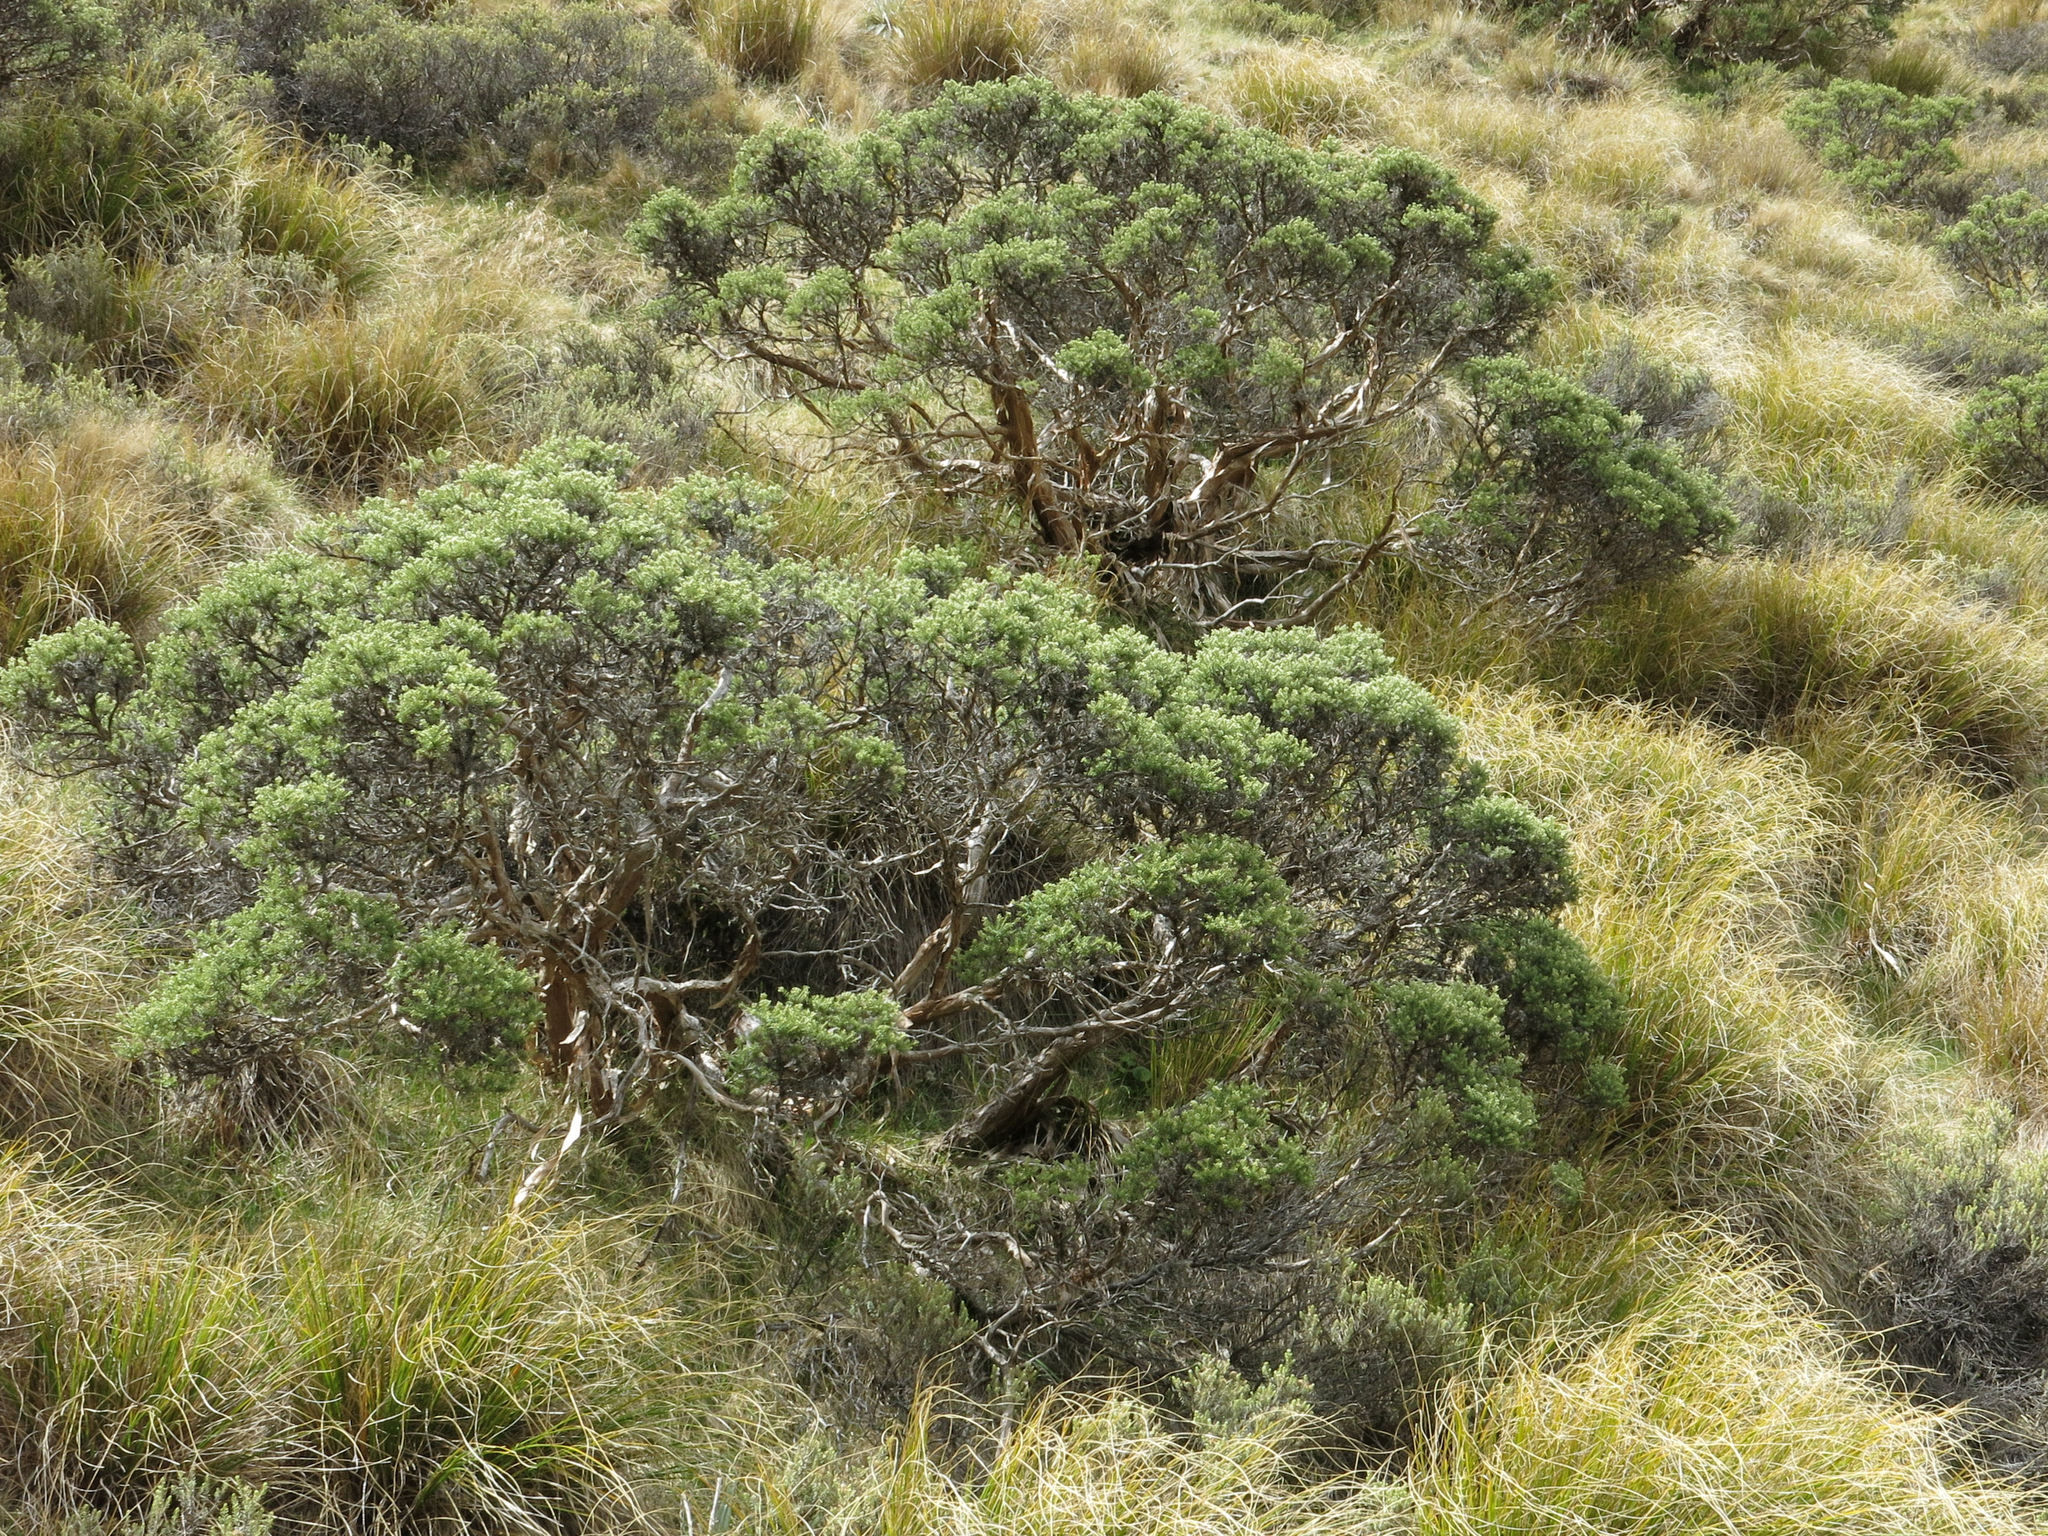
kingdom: Plantae
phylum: Tracheophyta
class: Magnoliopsida
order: Asterales
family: Asteraceae
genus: Brachyglottis
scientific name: Brachyglottis cassinioides
